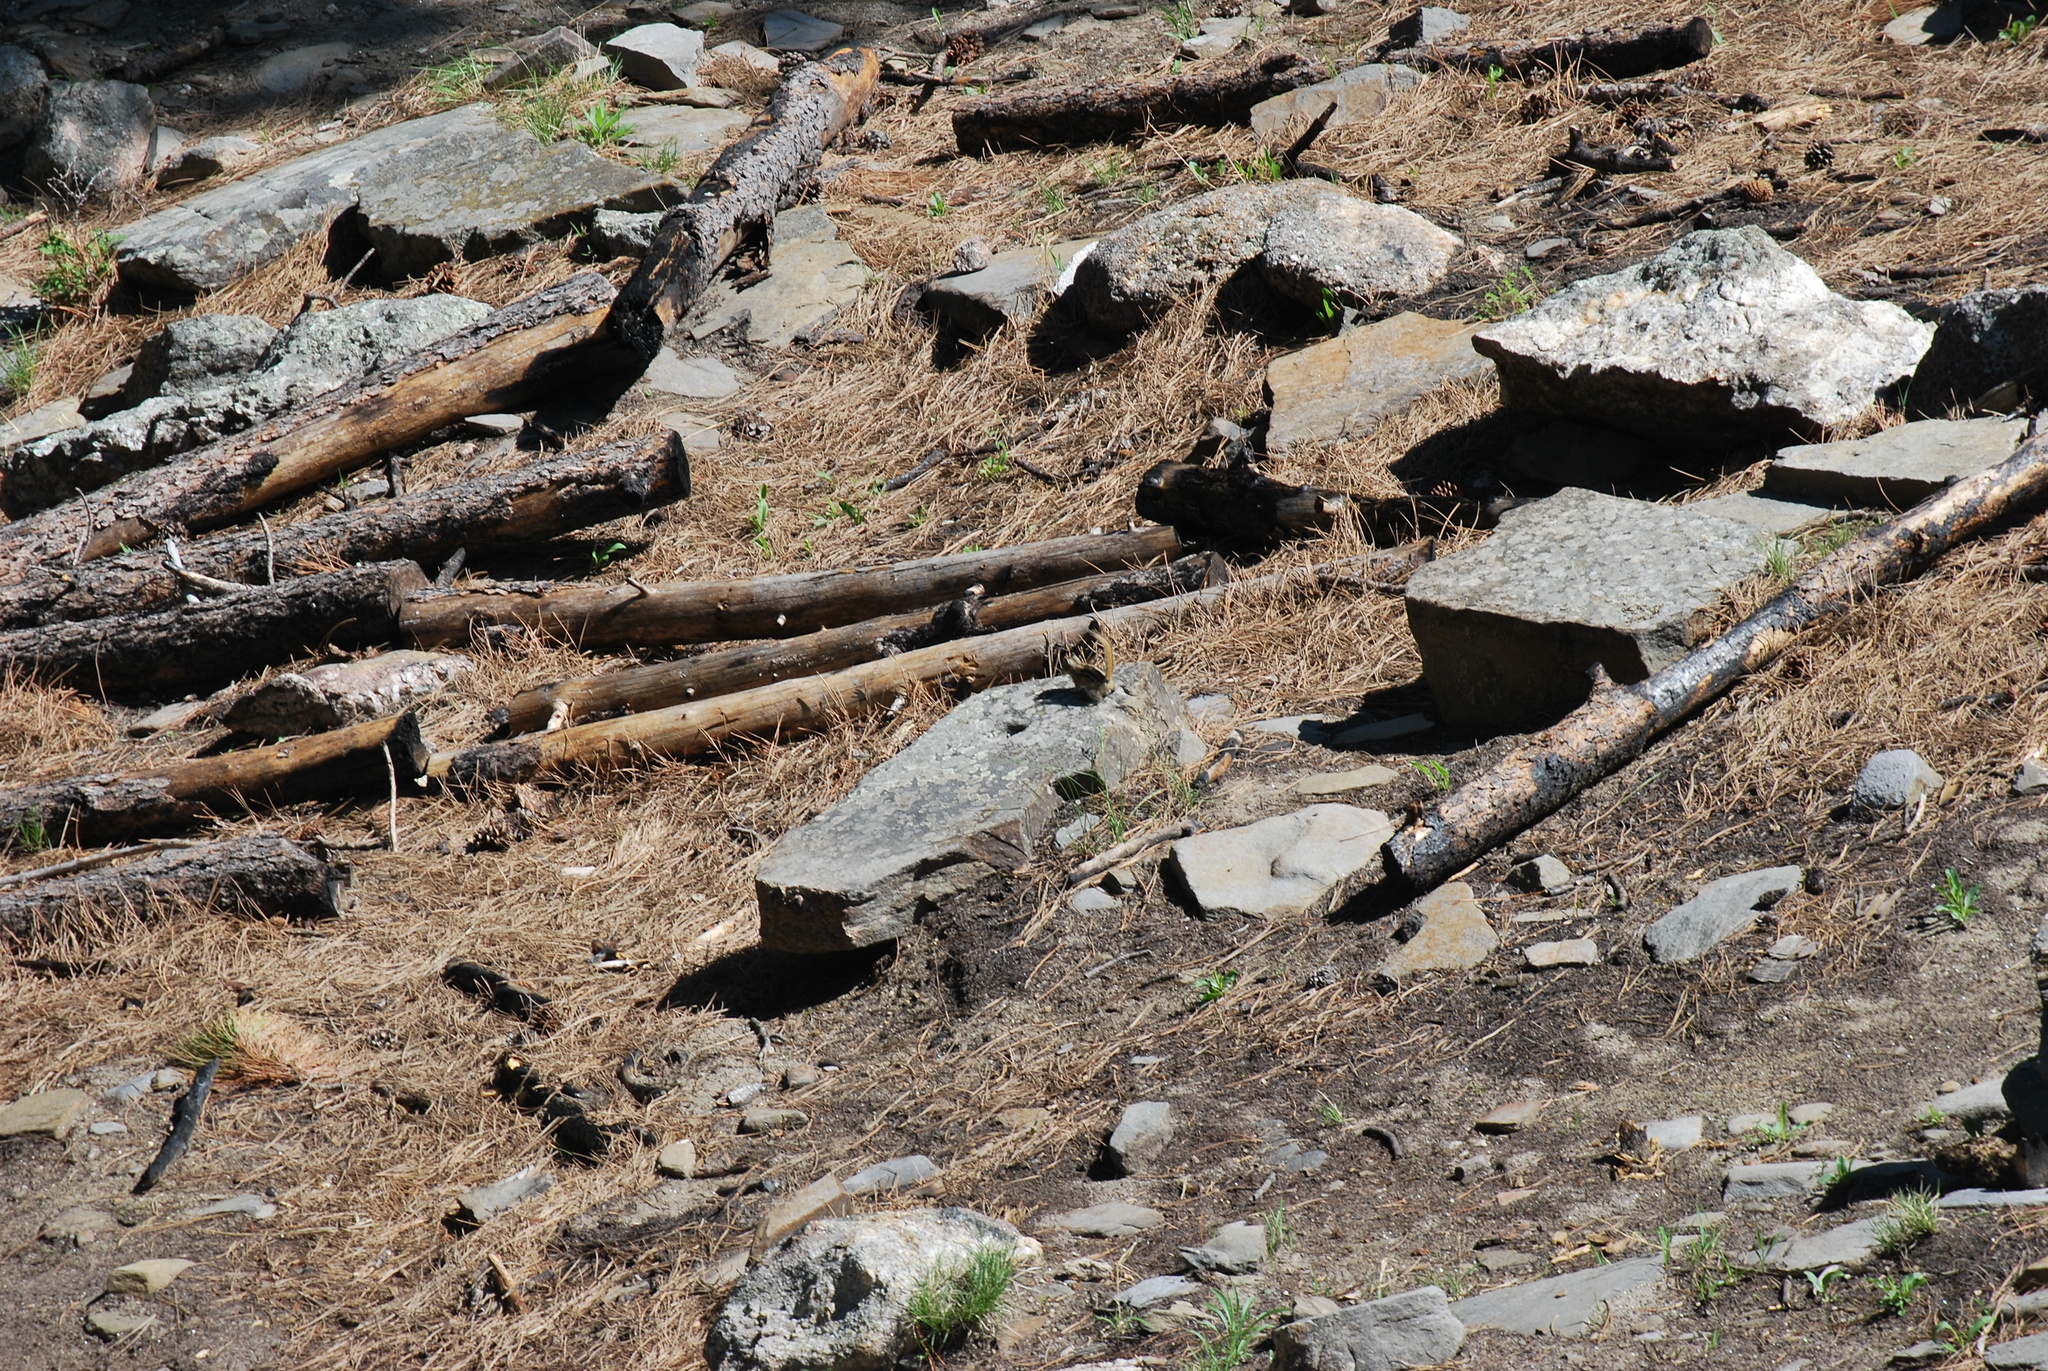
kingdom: Animalia
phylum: Chordata
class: Mammalia
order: Rodentia
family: Sciuridae
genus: Tamias
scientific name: Tamias minimus
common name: Least chipmunk
